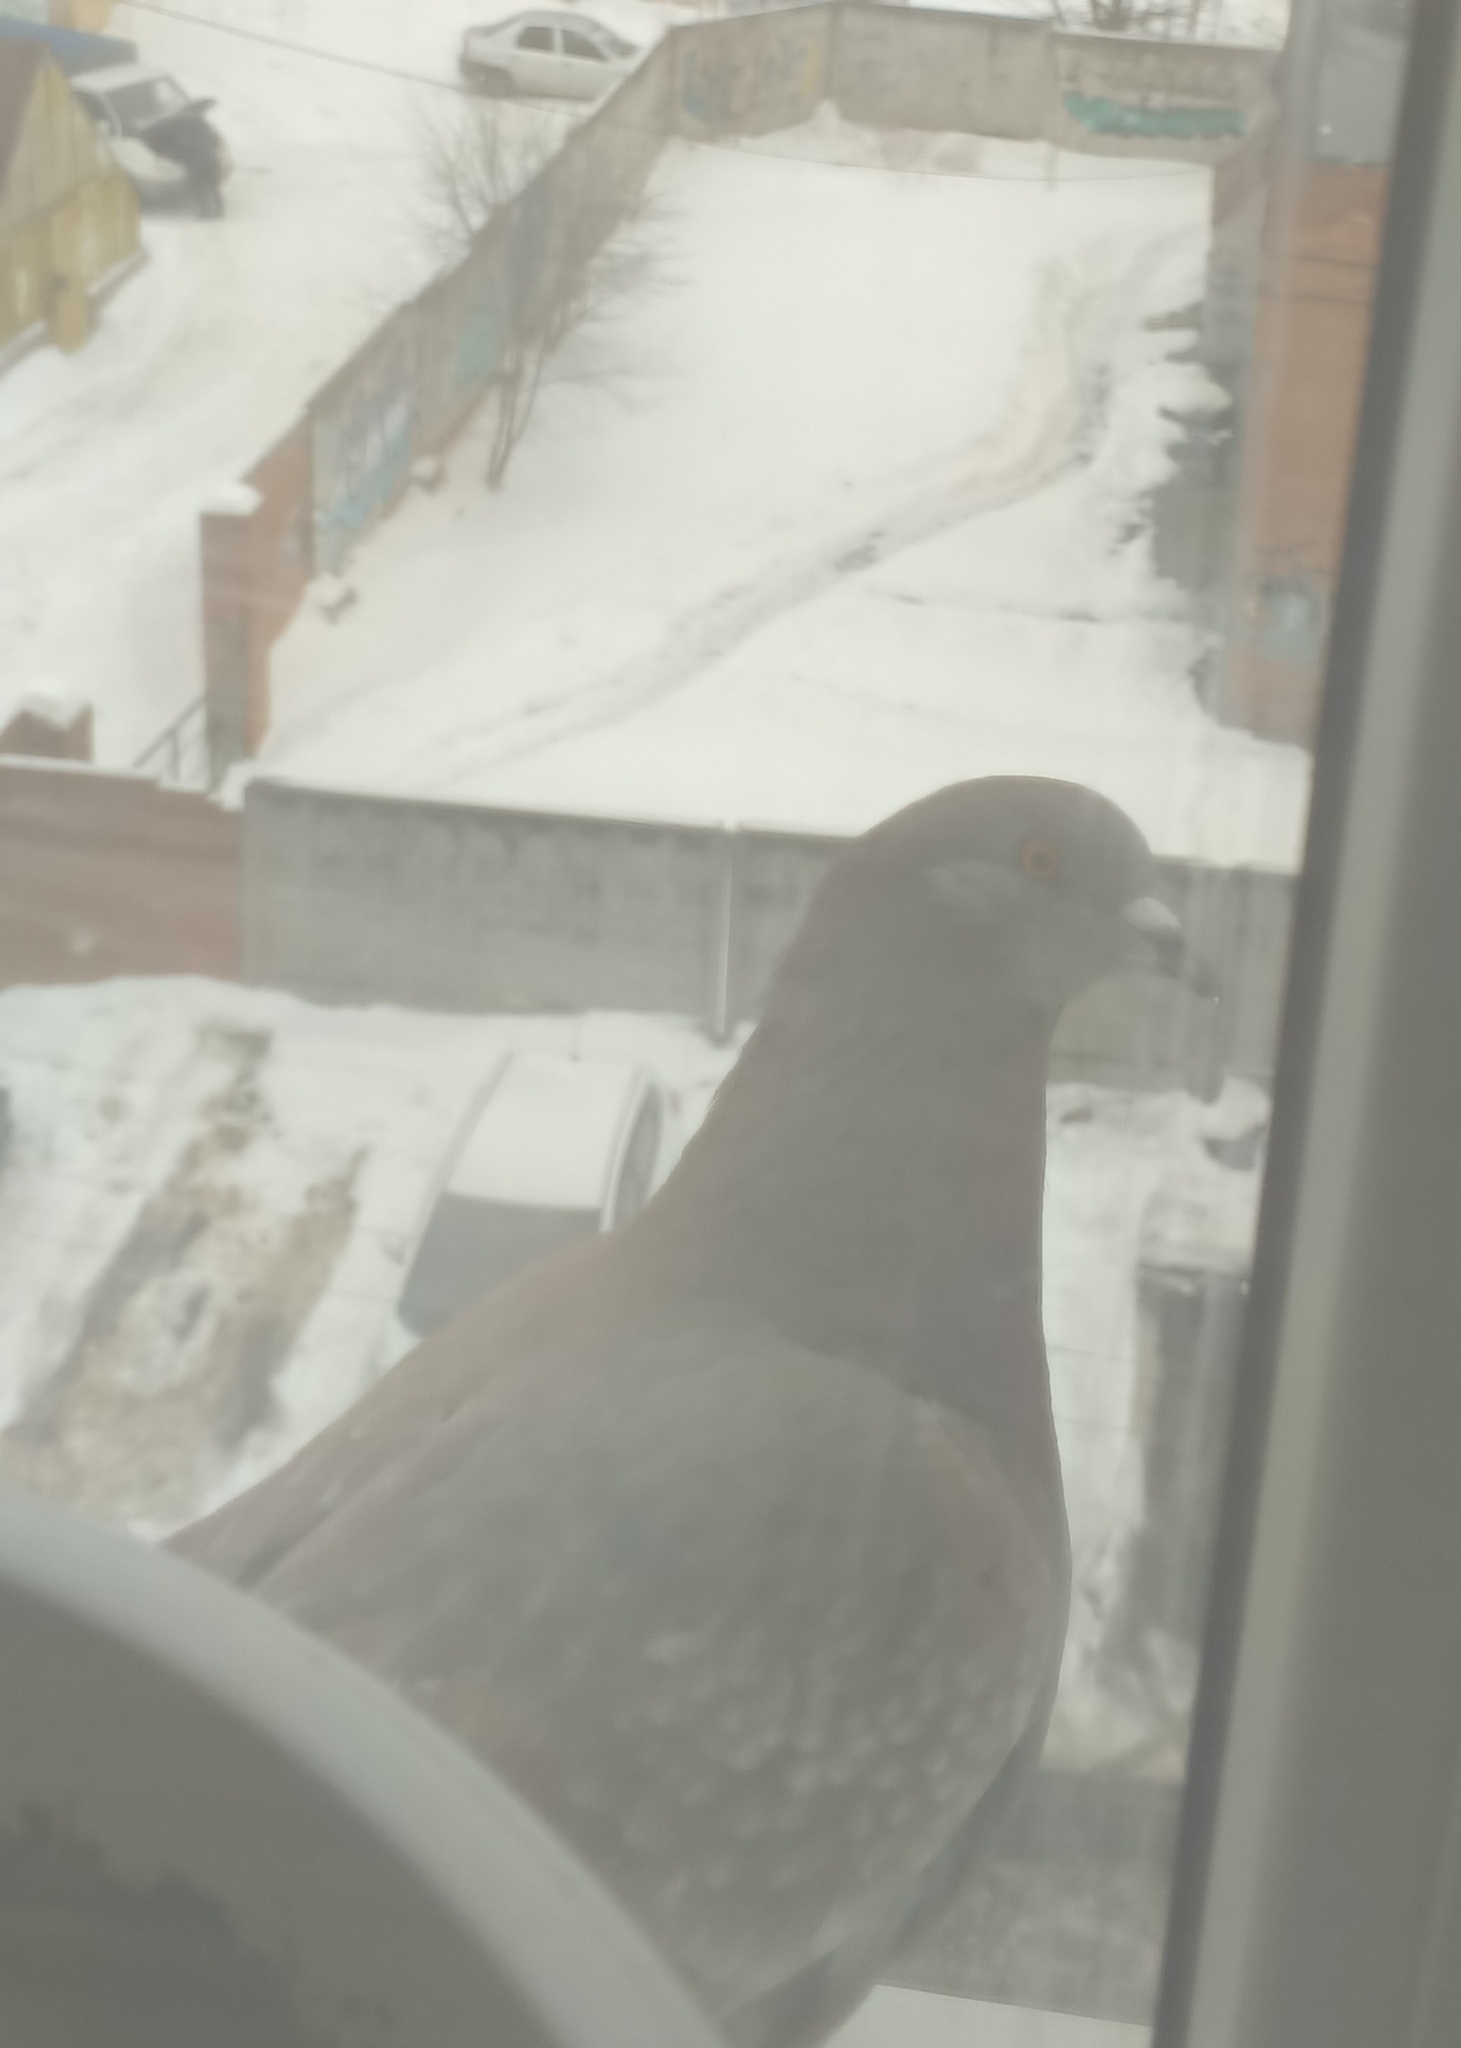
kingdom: Animalia
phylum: Chordata
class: Aves
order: Columbiformes
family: Columbidae
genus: Columba
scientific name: Columba livia
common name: Rock pigeon
